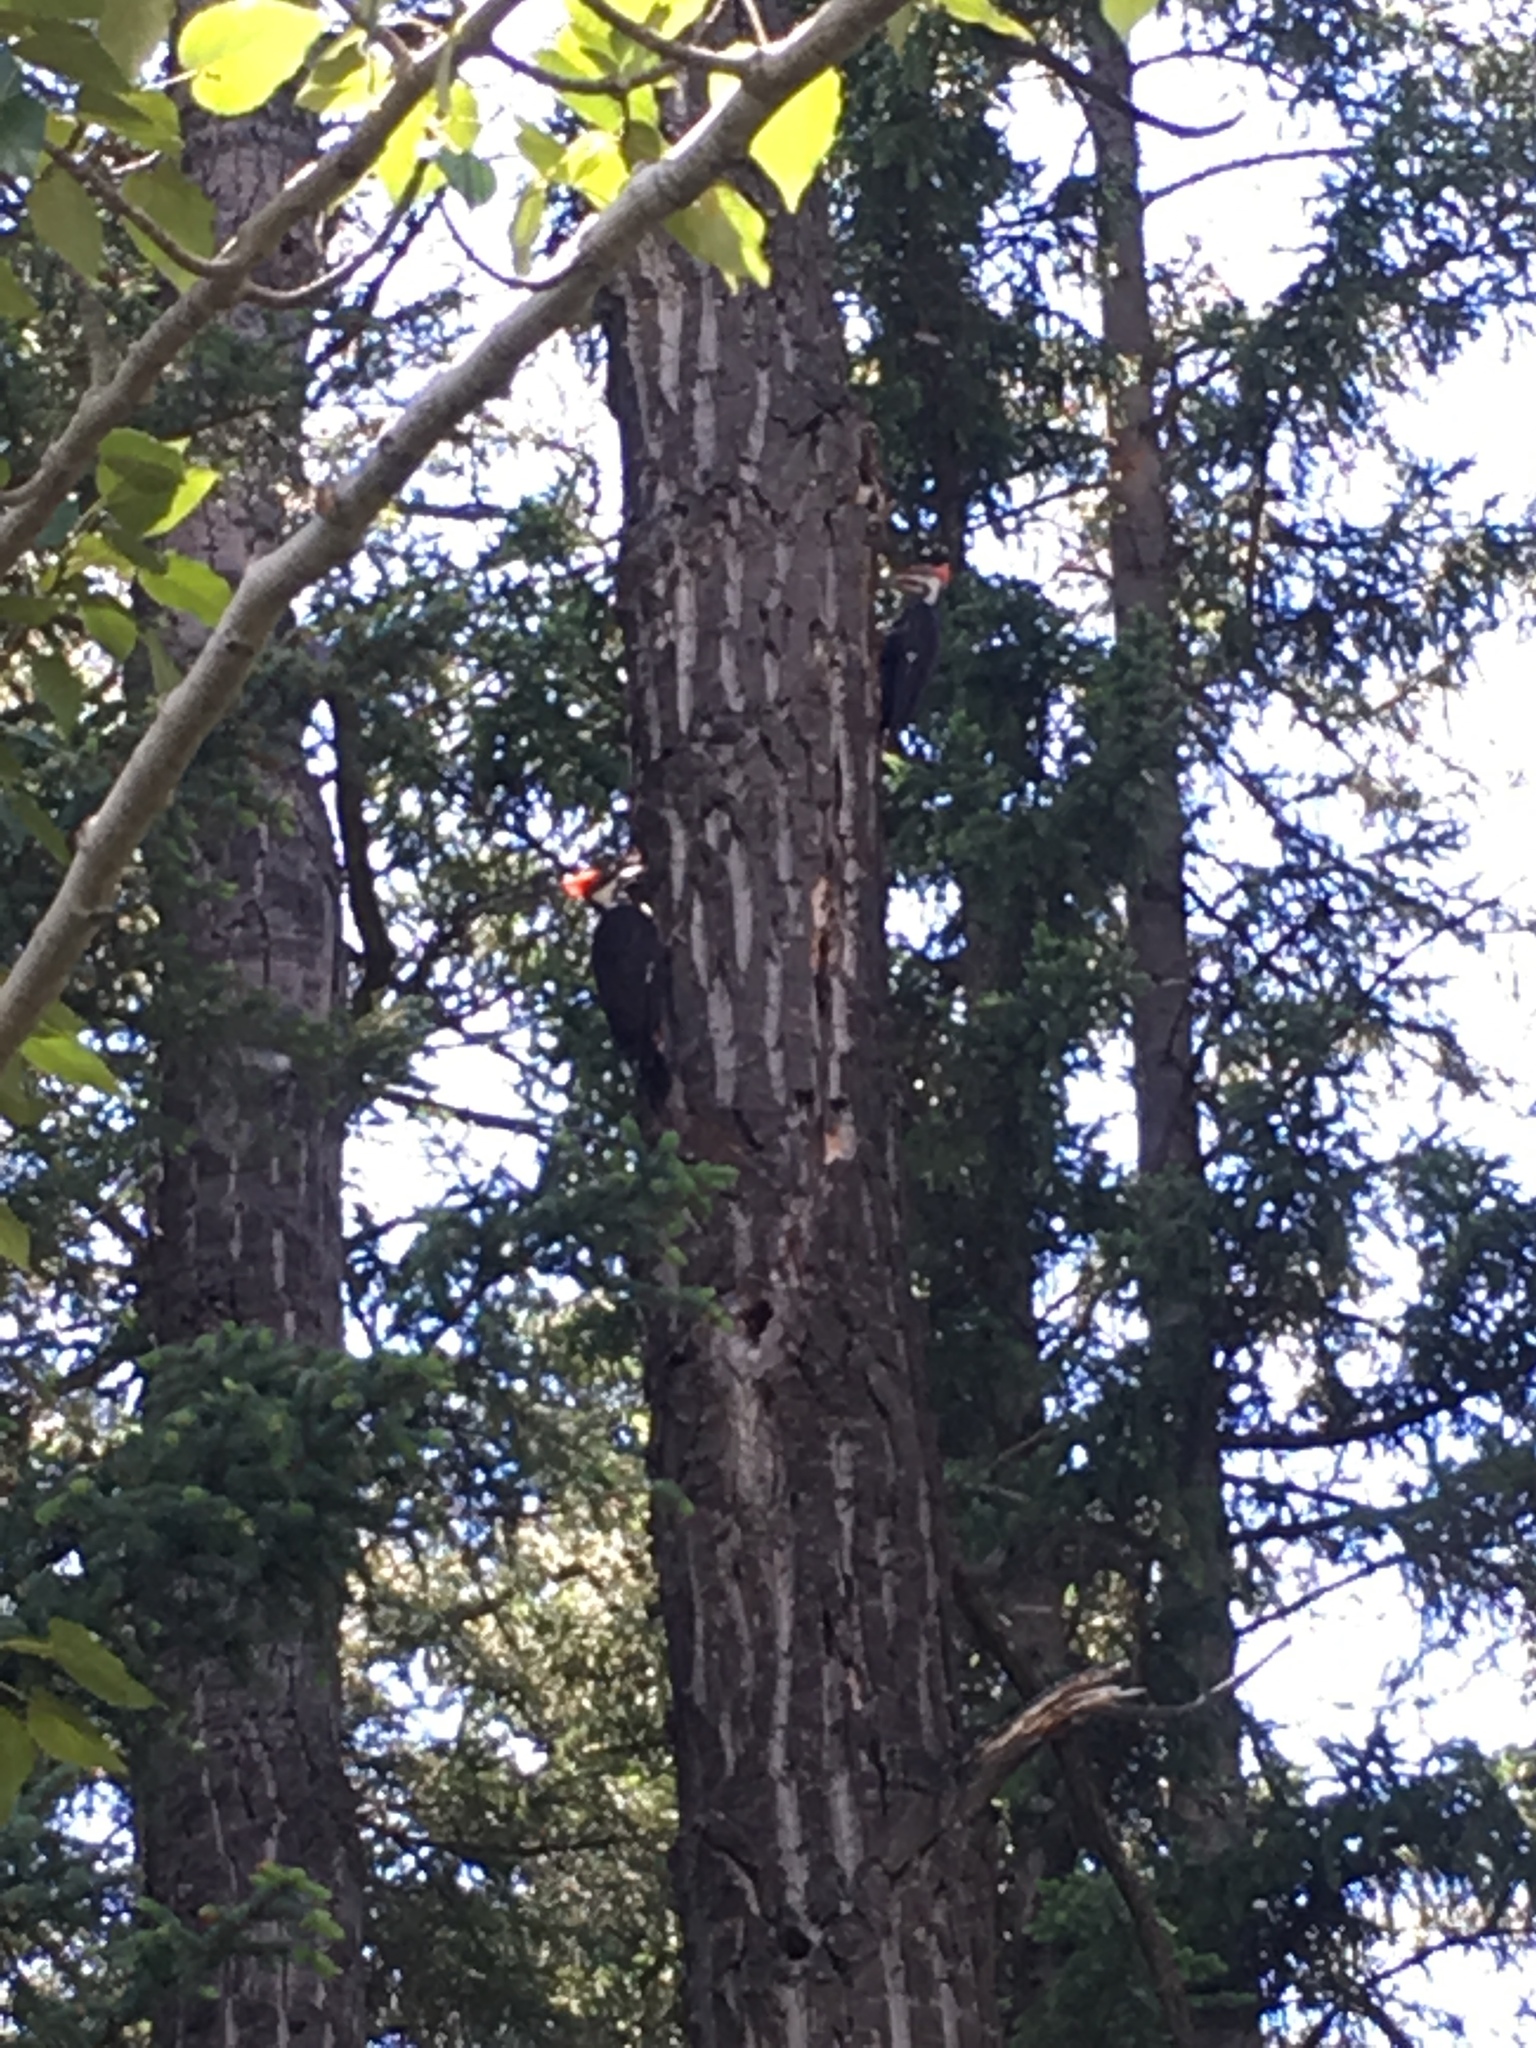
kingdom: Animalia
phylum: Chordata
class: Aves
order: Piciformes
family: Picidae
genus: Dryocopus
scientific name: Dryocopus pileatus
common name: Pileated woodpecker
